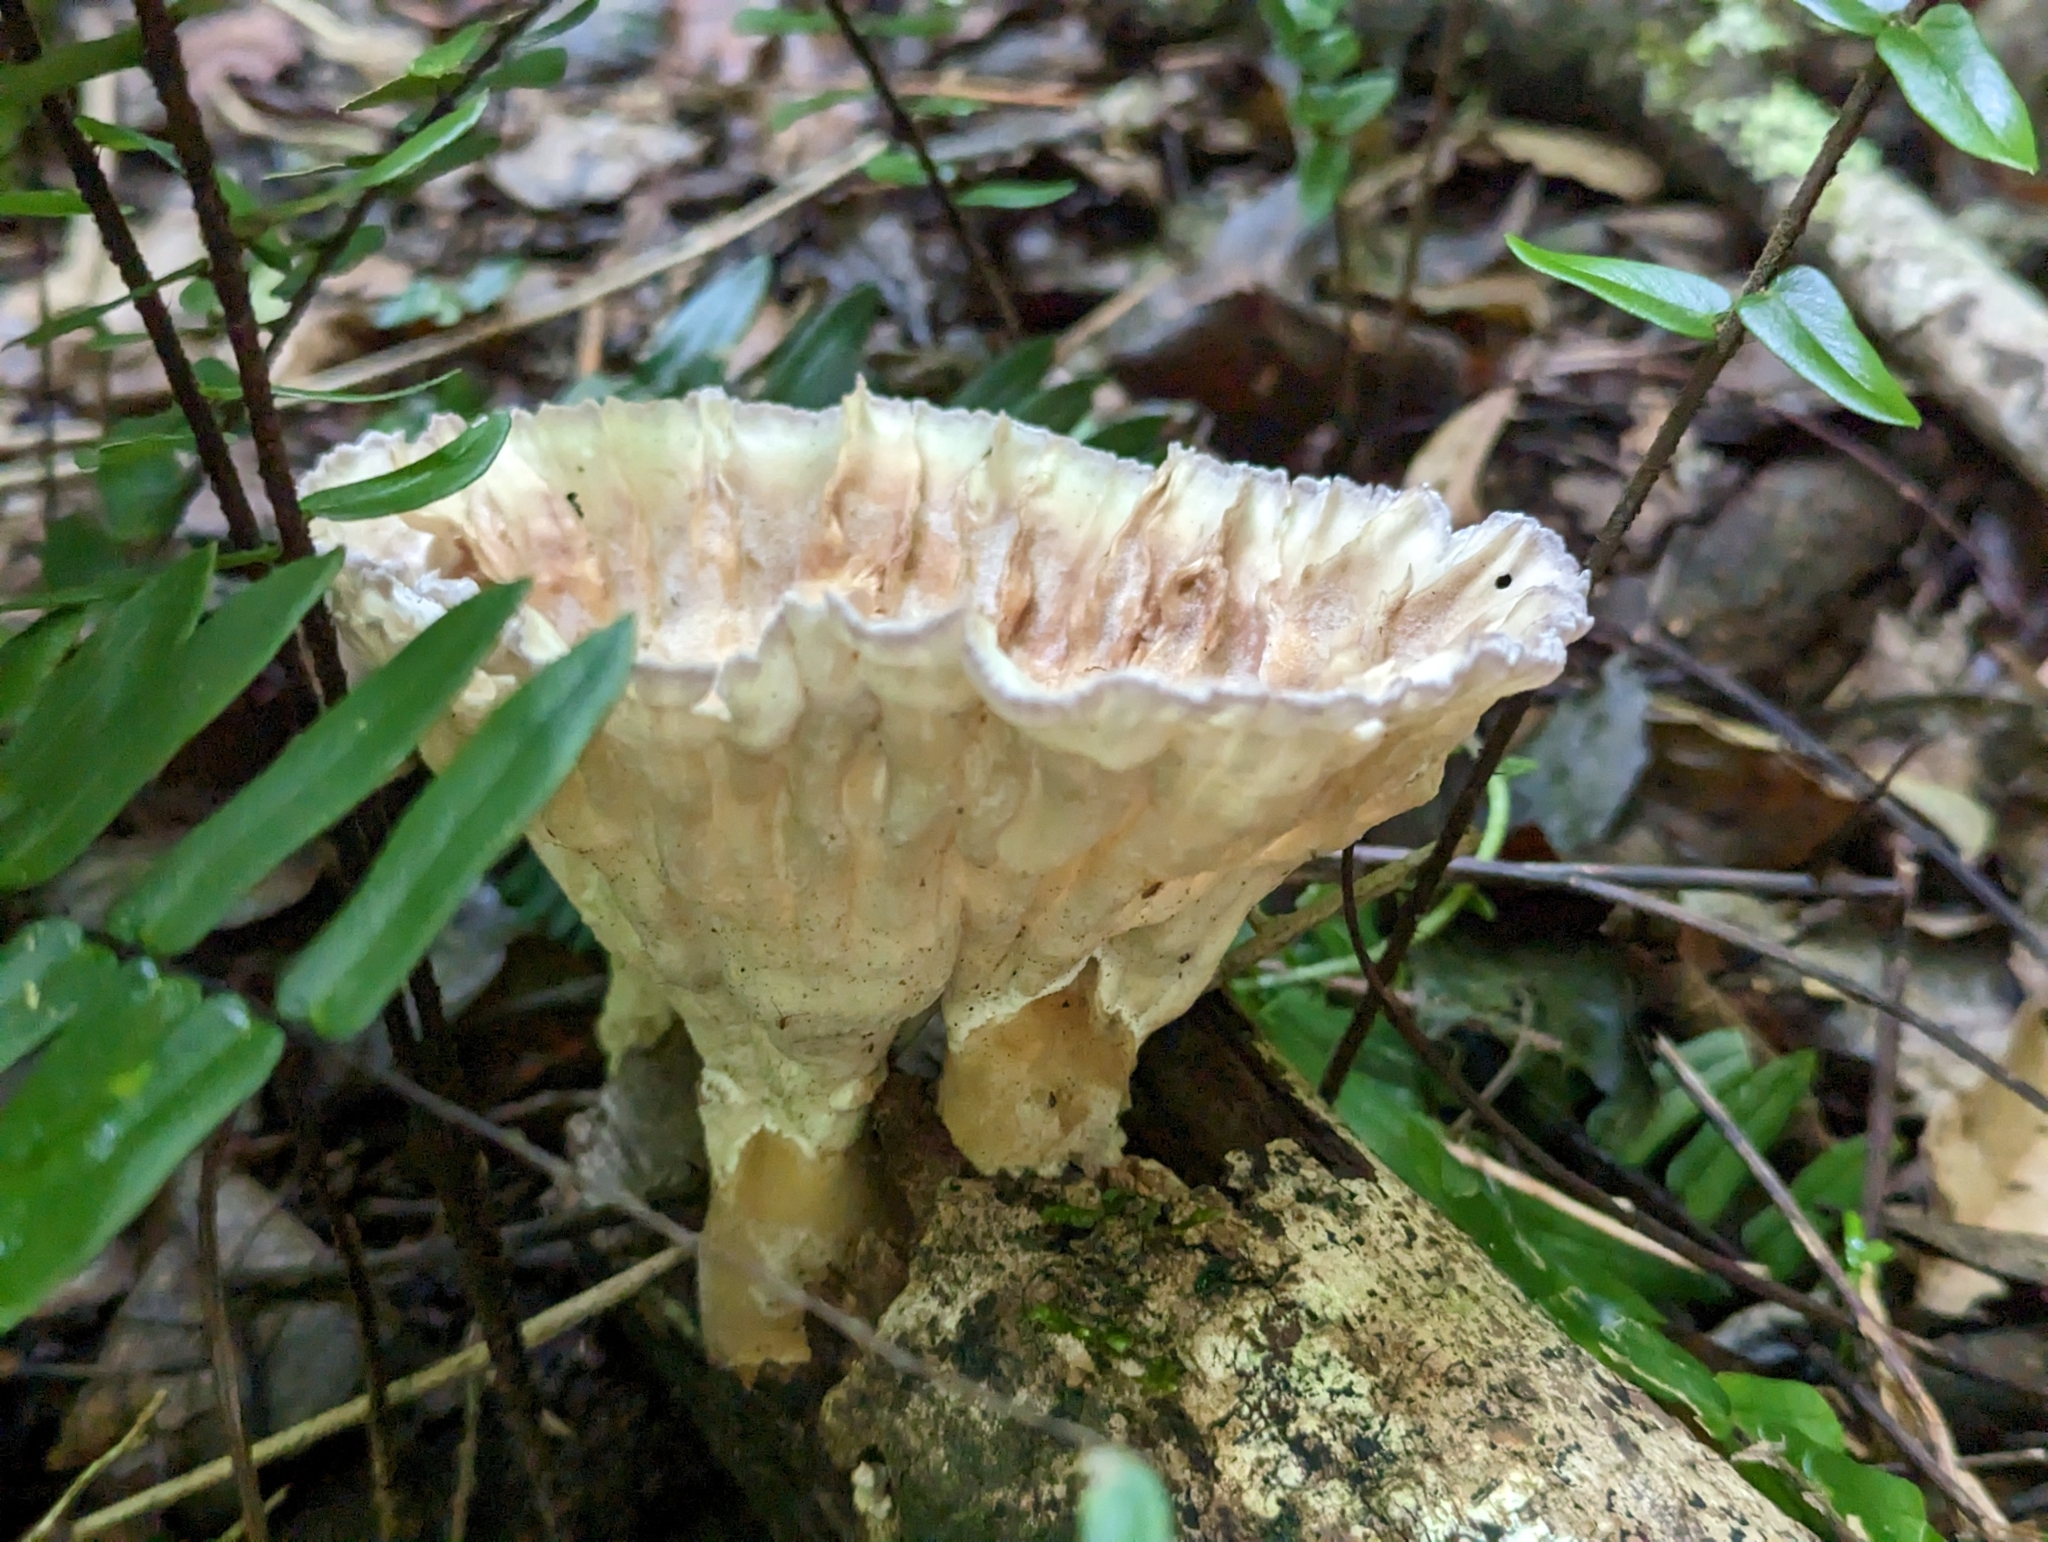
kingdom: Fungi
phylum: Basidiomycota
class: Agaricomycetes
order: Polyporales
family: Panaceae
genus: Cymatoderma
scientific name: Cymatoderma elegans
